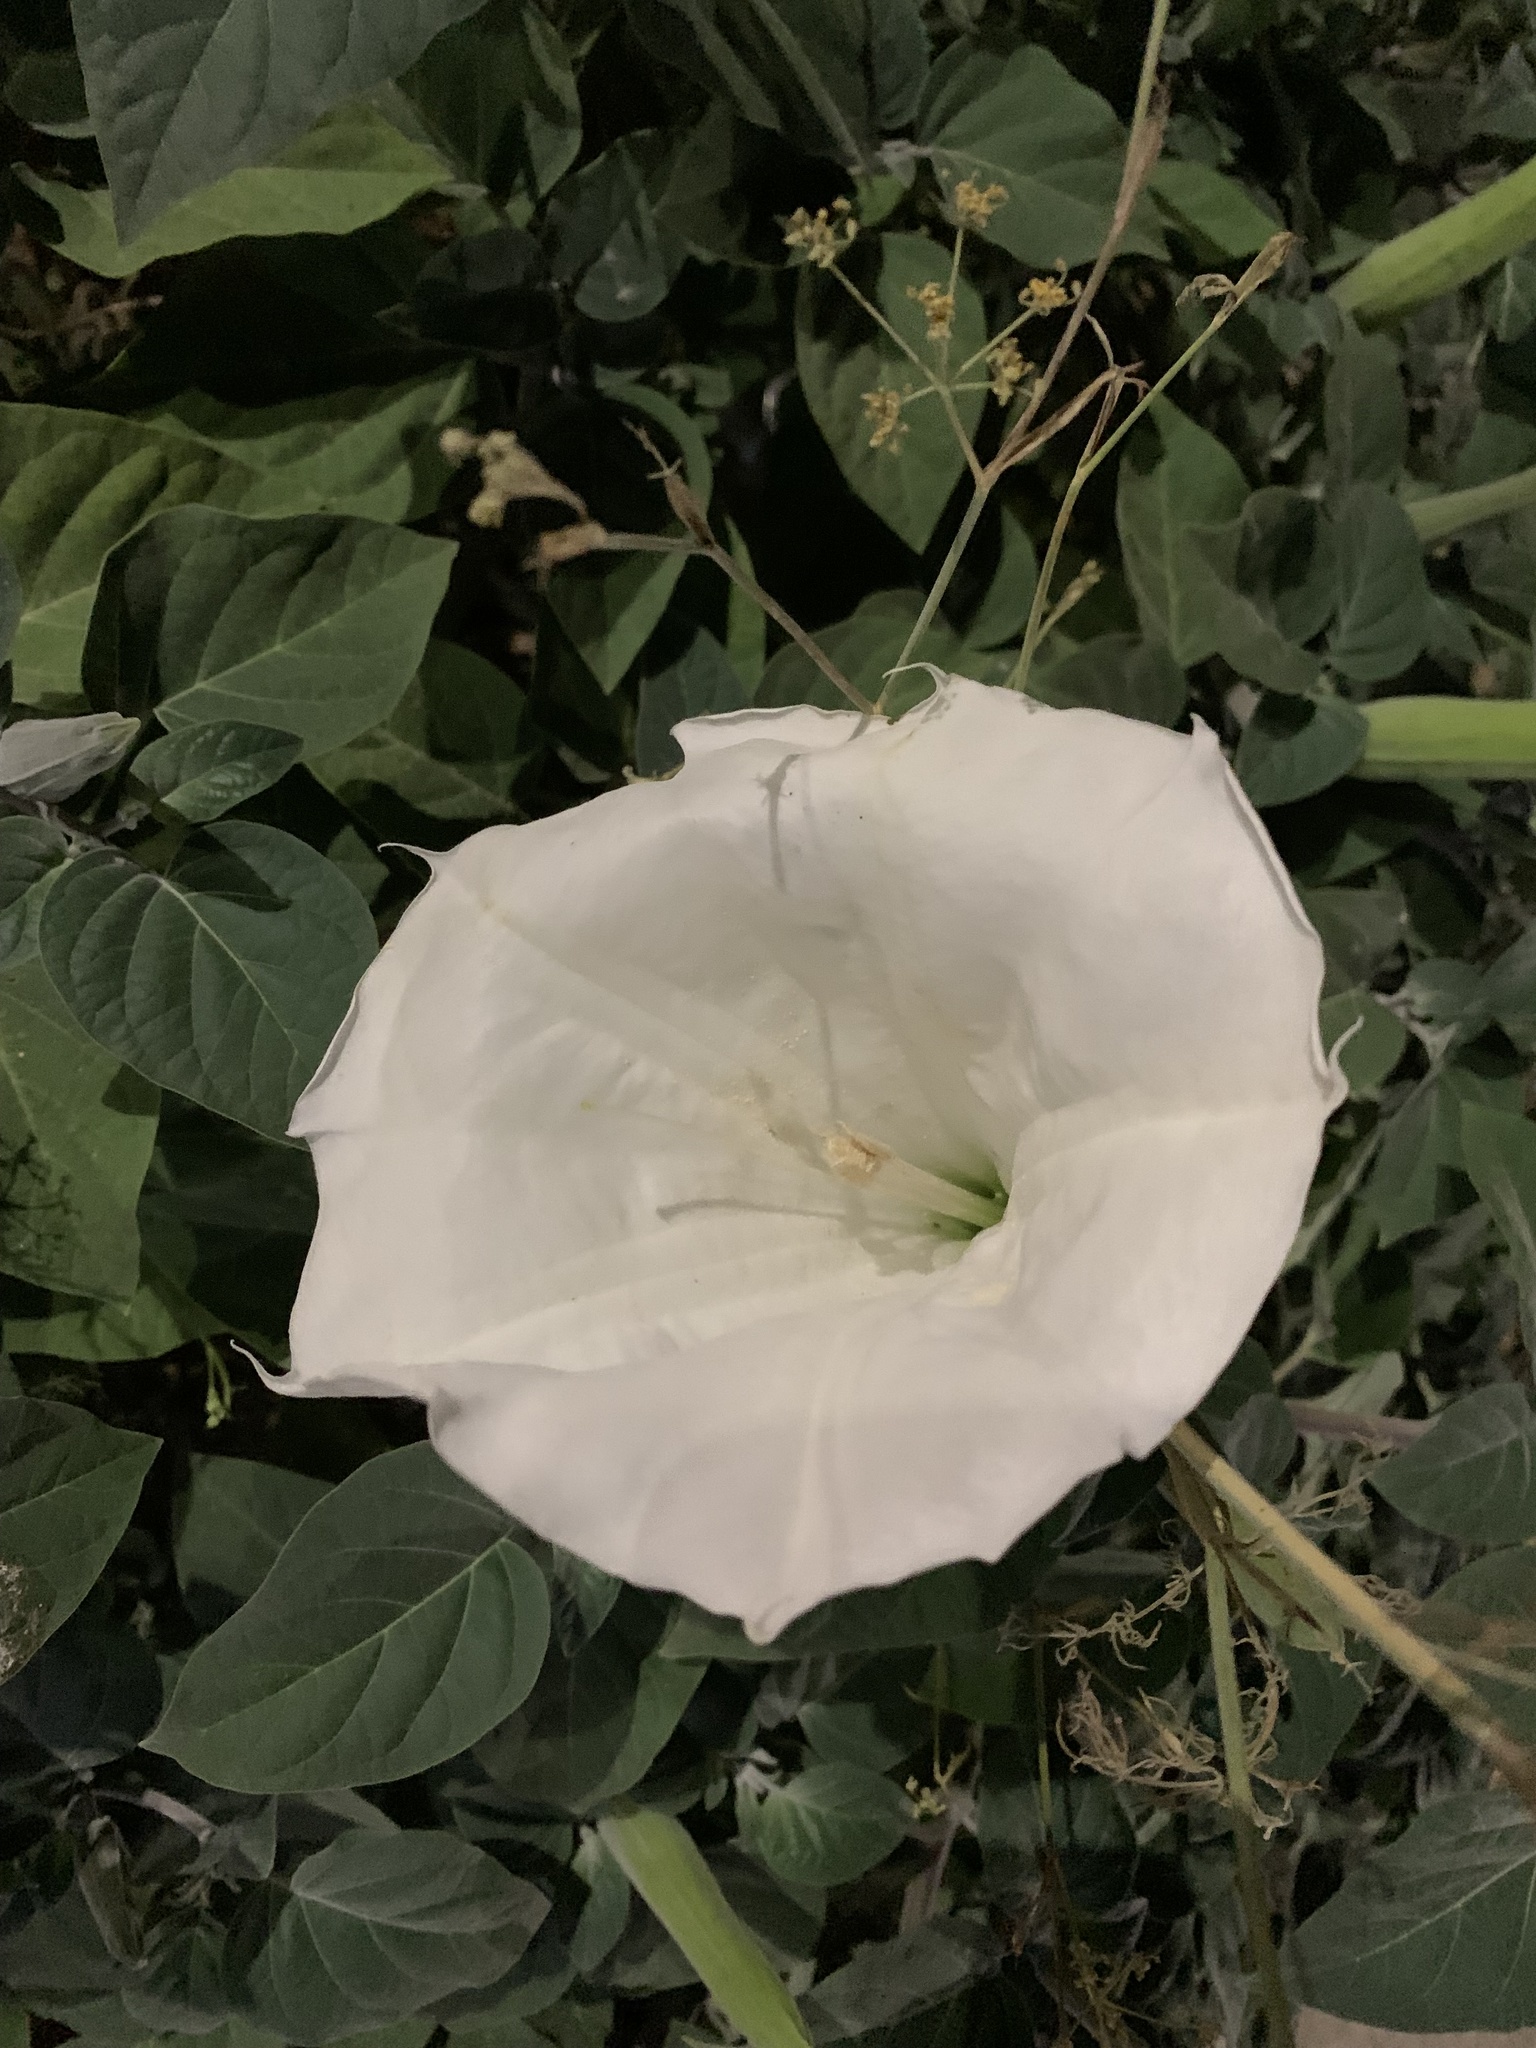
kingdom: Plantae
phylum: Tracheophyta
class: Magnoliopsida
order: Solanales
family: Solanaceae
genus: Datura
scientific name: Datura innoxia
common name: Downy thorn-apple
